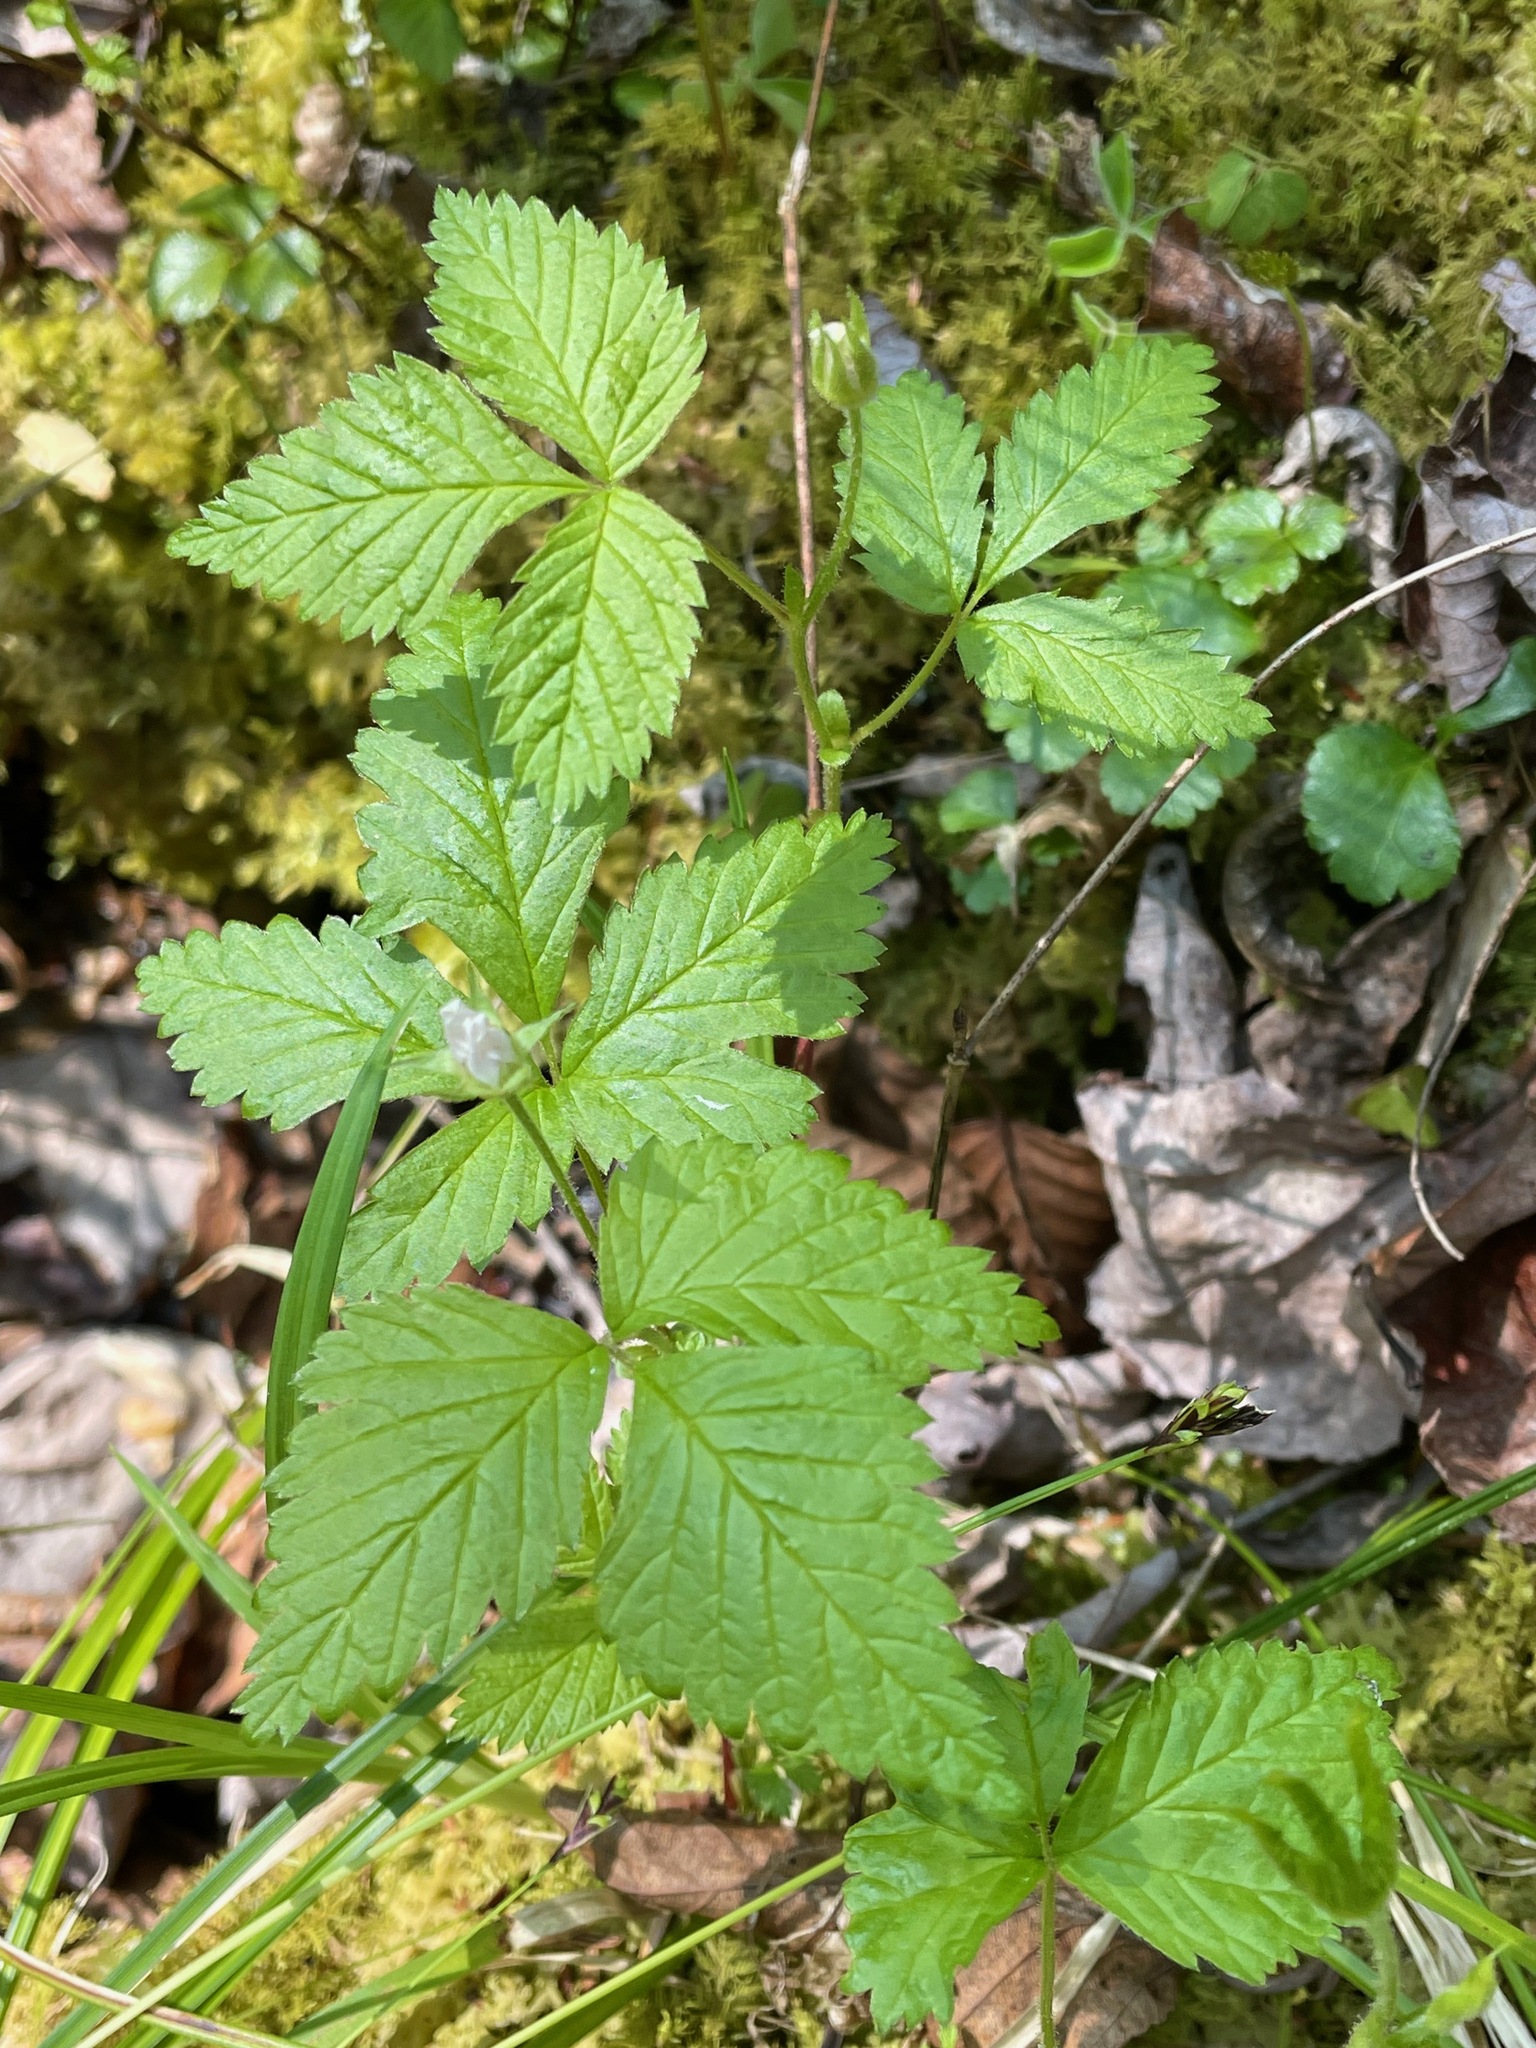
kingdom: Plantae
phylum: Tracheophyta
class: Magnoliopsida
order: Rosales
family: Rosaceae
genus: Rubus
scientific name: Rubus pubescens
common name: Dwarf raspberry
